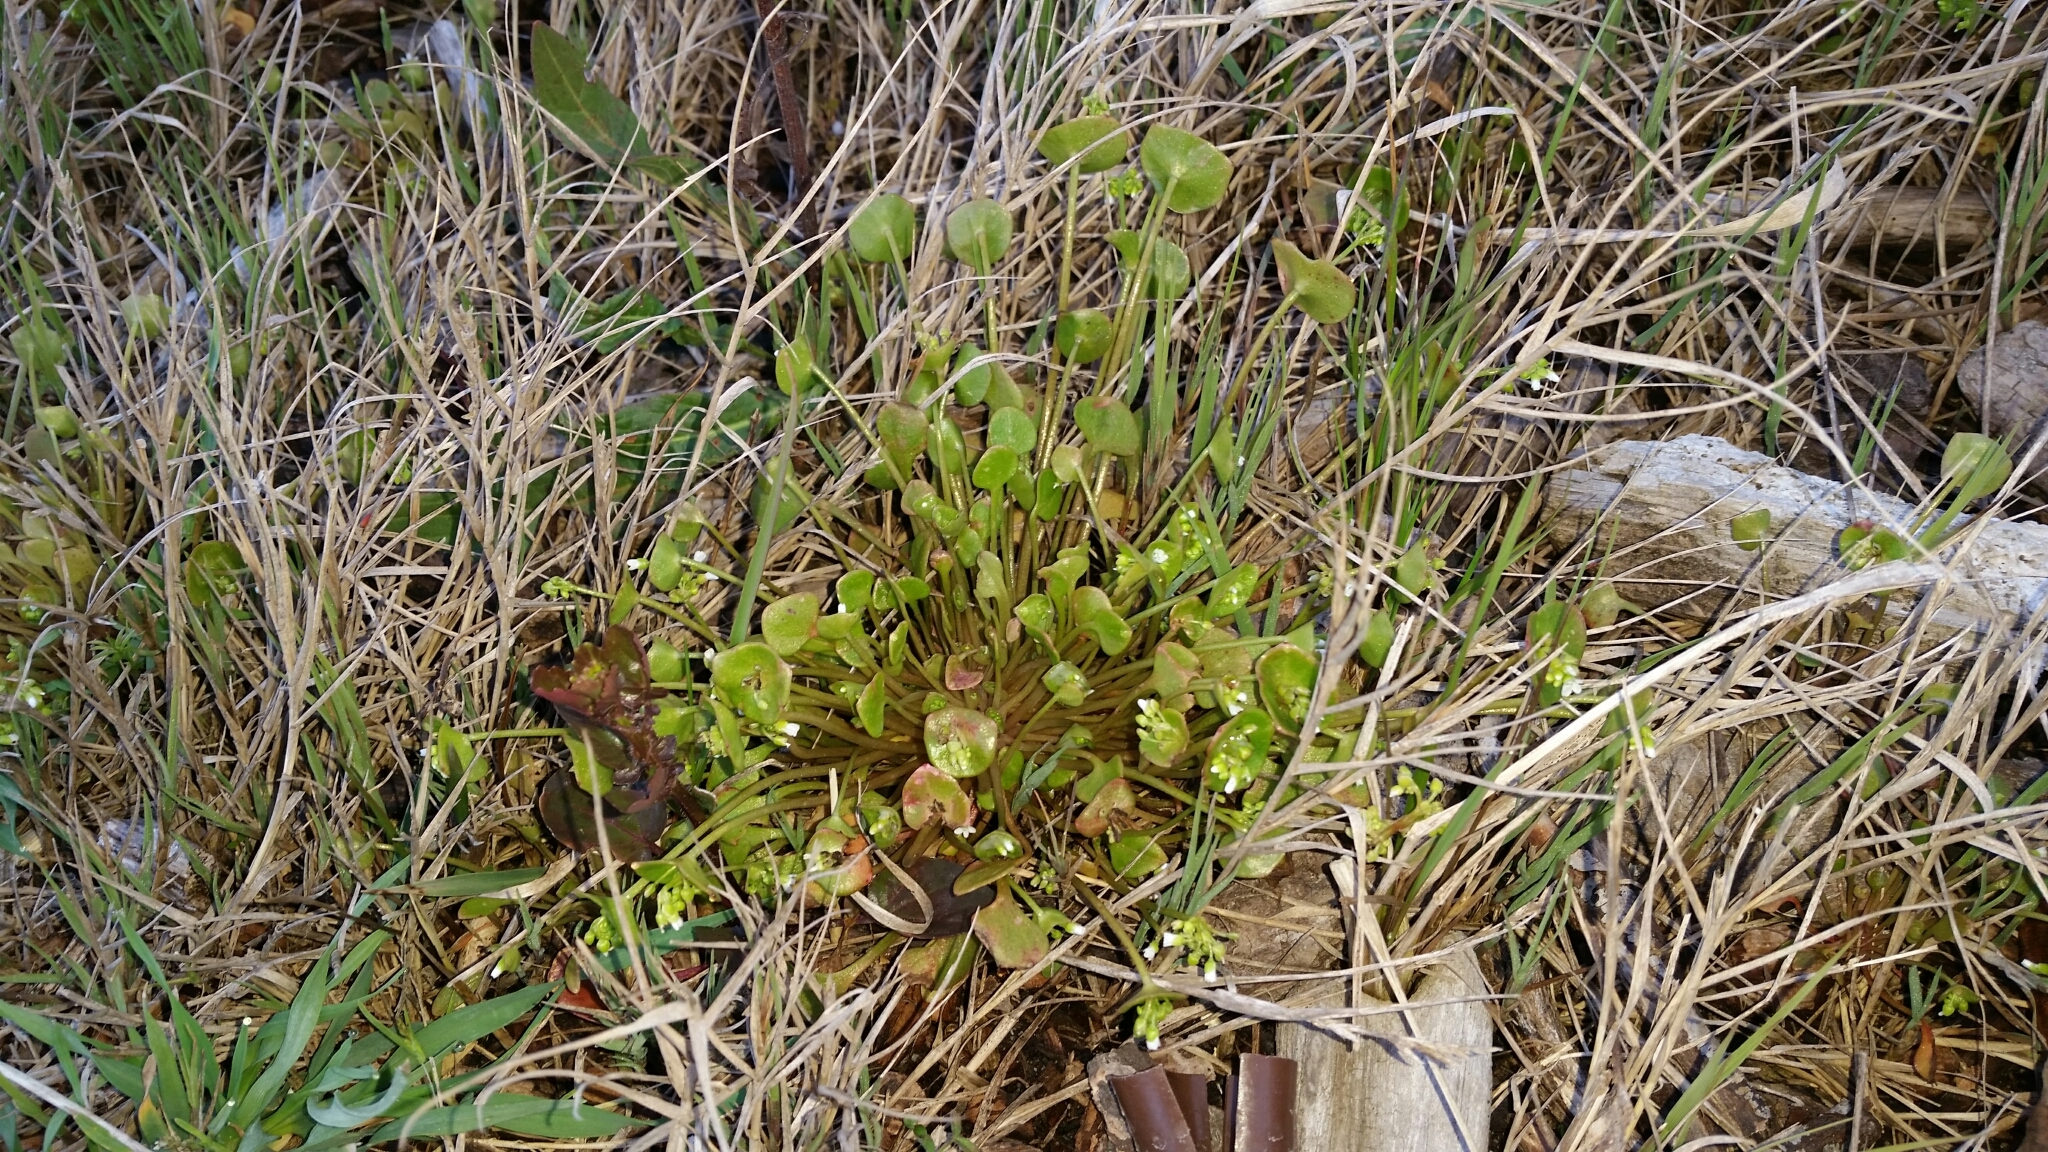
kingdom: Plantae
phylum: Tracheophyta
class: Magnoliopsida
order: Caryophyllales
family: Montiaceae
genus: Claytonia
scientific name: Claytonia perfoliata
